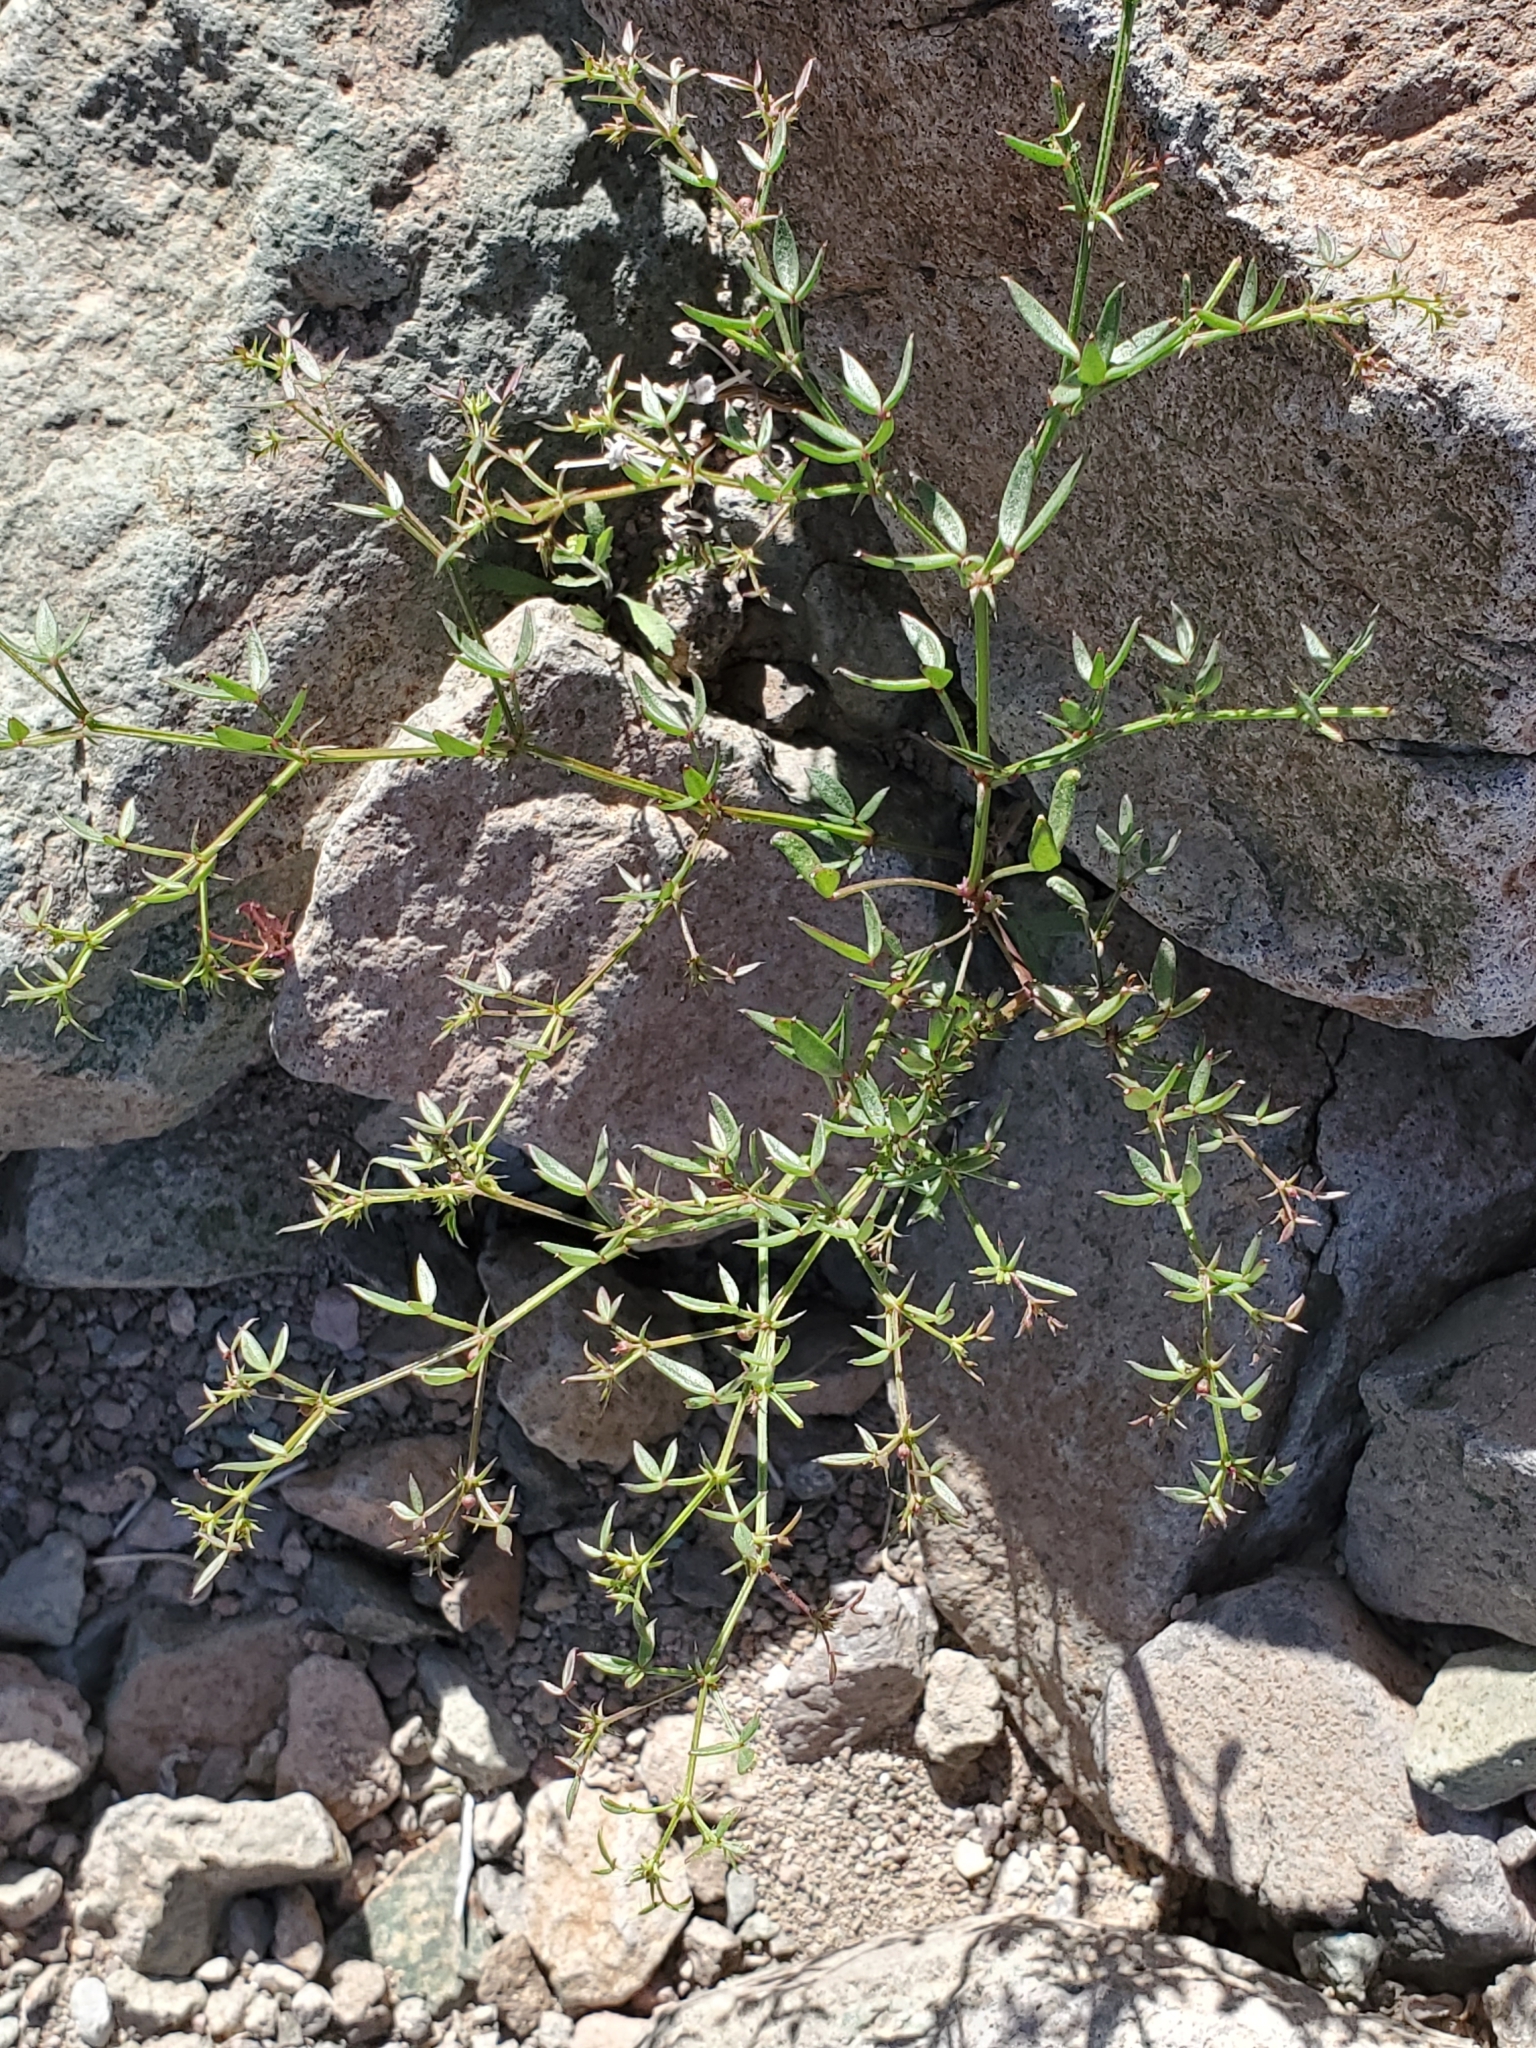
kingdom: Plantae
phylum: Tracheophyta
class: Magnoliopsida
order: Zygophyllales
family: Zygophyllaceae
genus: Fagonia
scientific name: Fagonia laevis
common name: California fagonbush
